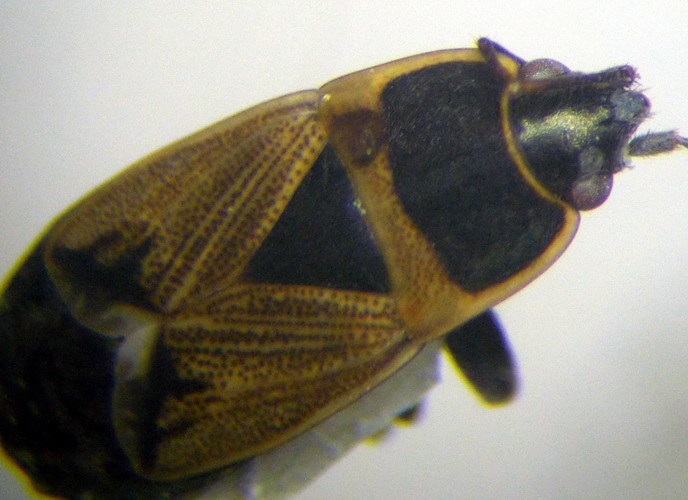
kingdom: Animalia
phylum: Arthropoda
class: Insecta
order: Hemiptera
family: Rhyparochromidae
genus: Bleteogonus
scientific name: Bleteogonus beckeri
